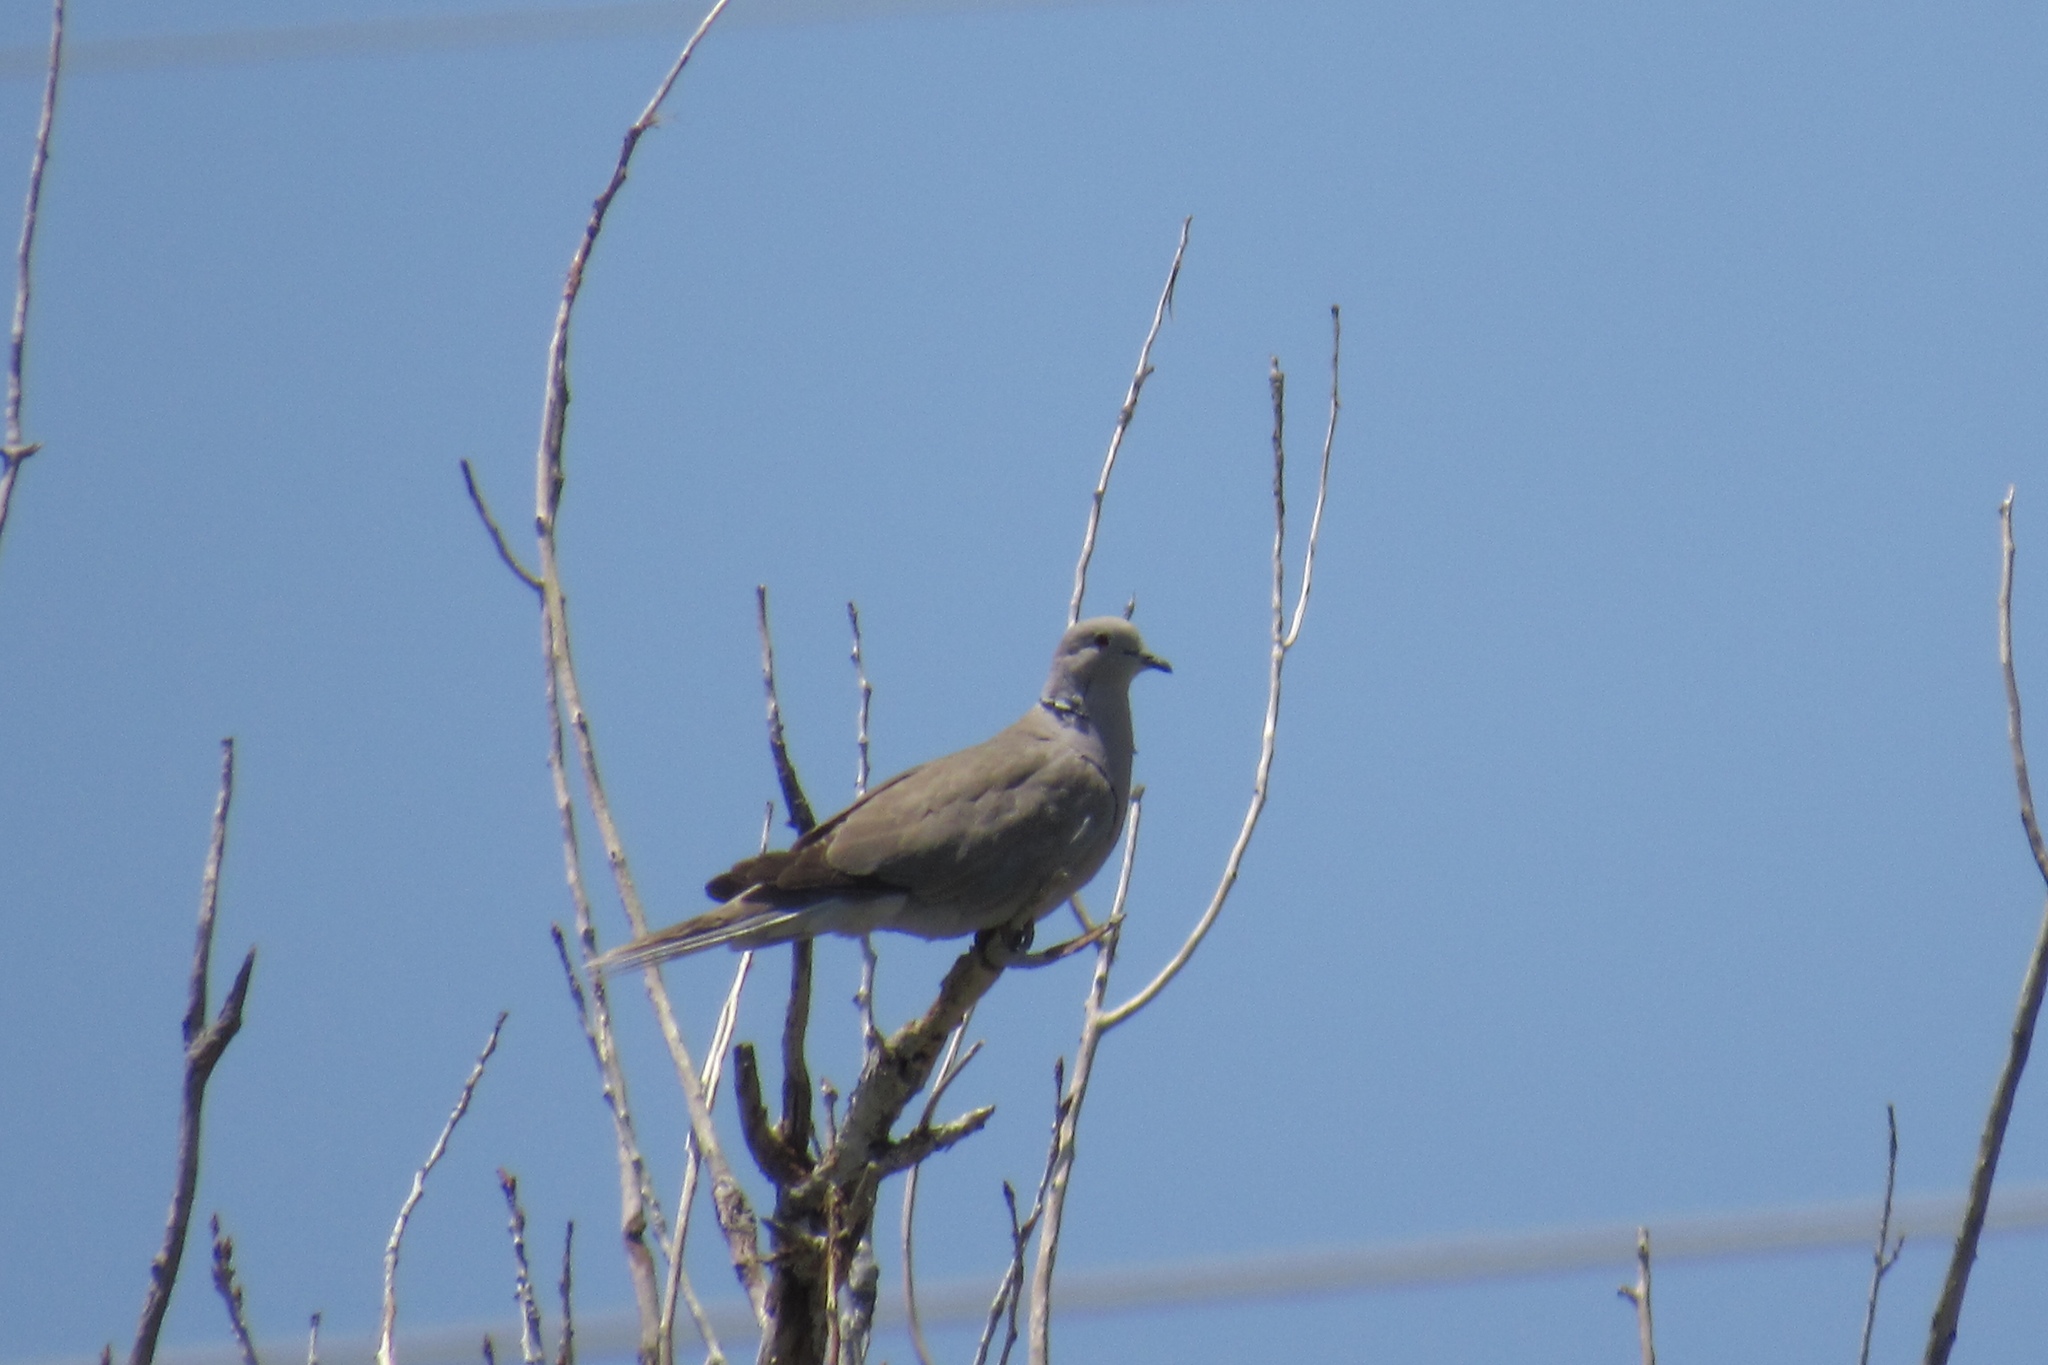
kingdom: Animalia
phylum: Chordata
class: Aves
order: Columbiformes
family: Columbidae
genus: Streptopelia
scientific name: Streptopelia decaocto
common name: Eurasian collared dove
